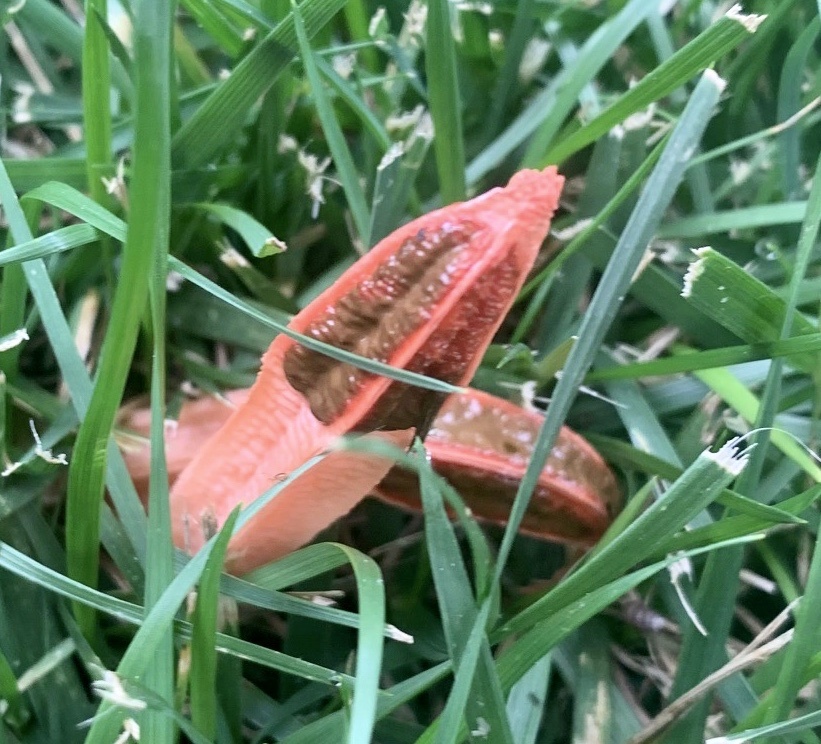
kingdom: Fungi
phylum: Basidiomycota
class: Agaricomycetes
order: Phallales
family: Phallaceae
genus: Lysurus
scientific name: Lysurus mokusin
